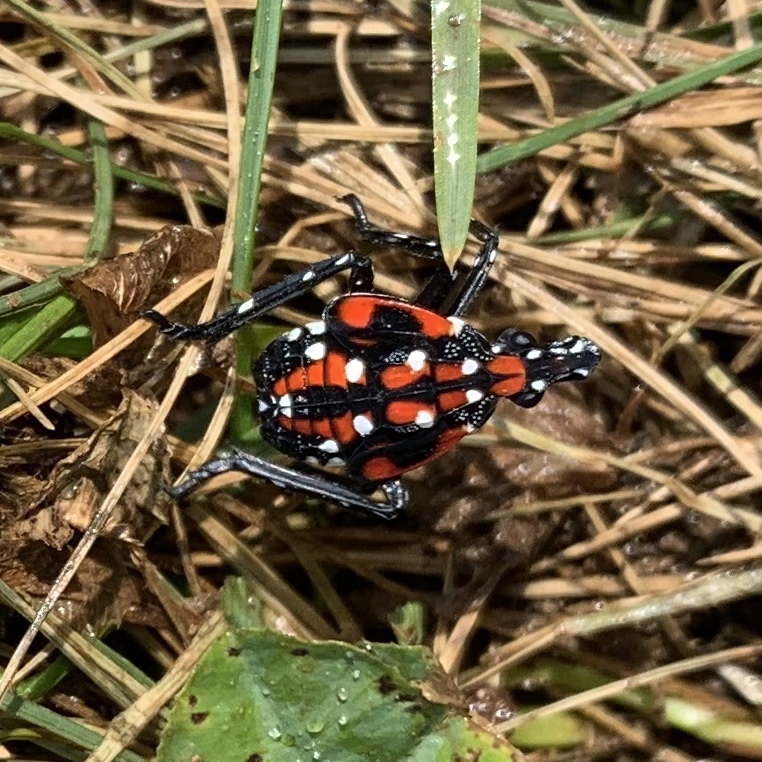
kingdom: Animalia
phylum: Arthropoda
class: Insecta
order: Hemiptera
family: Fulgoridae
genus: Lycorma
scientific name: Lycorma delicatula
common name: Spotted lanternfly
